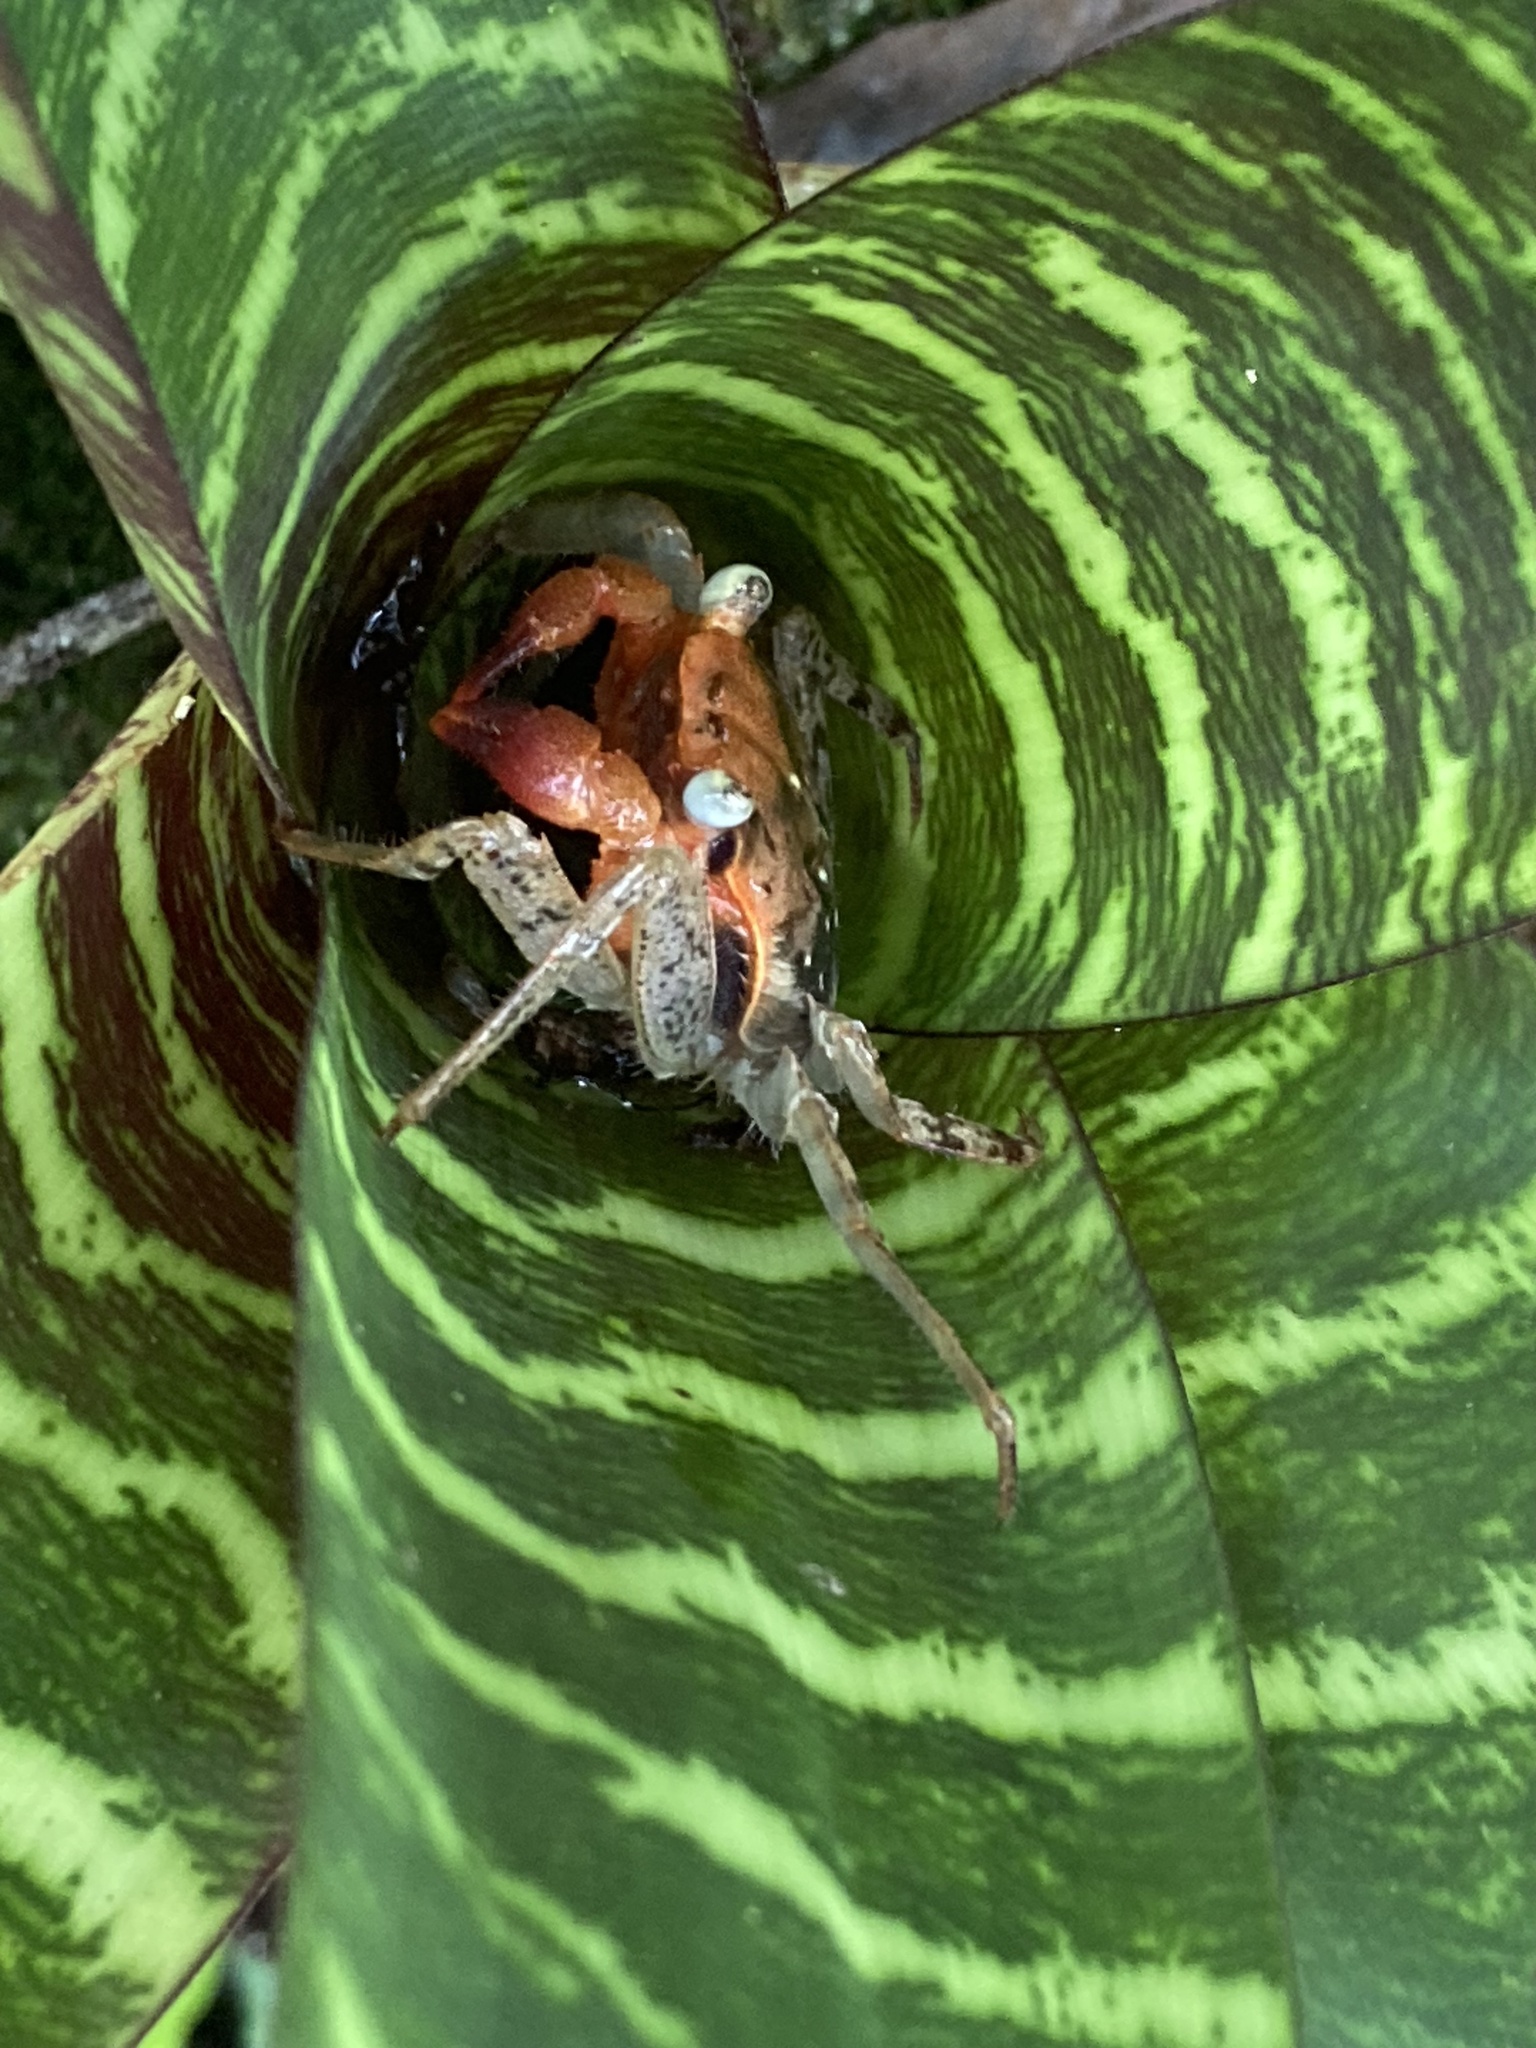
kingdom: Animalia
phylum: Arthropoda
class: Malacostraca
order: Decapoda
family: Sesarmidae
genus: Armases
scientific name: Armases angustum
